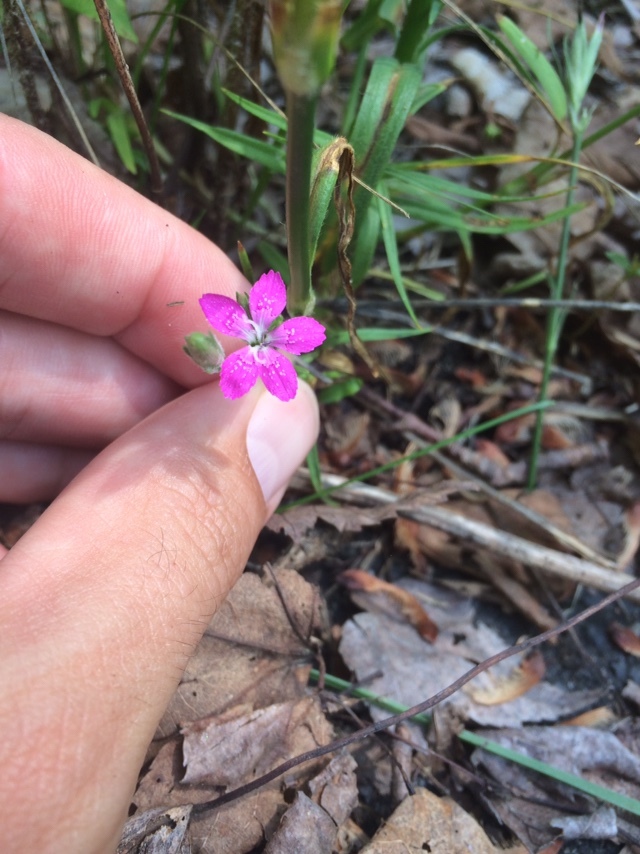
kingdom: Plantae
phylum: Tracheophyta
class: Magnoliopsida
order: Caryophyllales
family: Caryophyllaceae
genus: Dianthus
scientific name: Dianthus armeria
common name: Deptford pink
